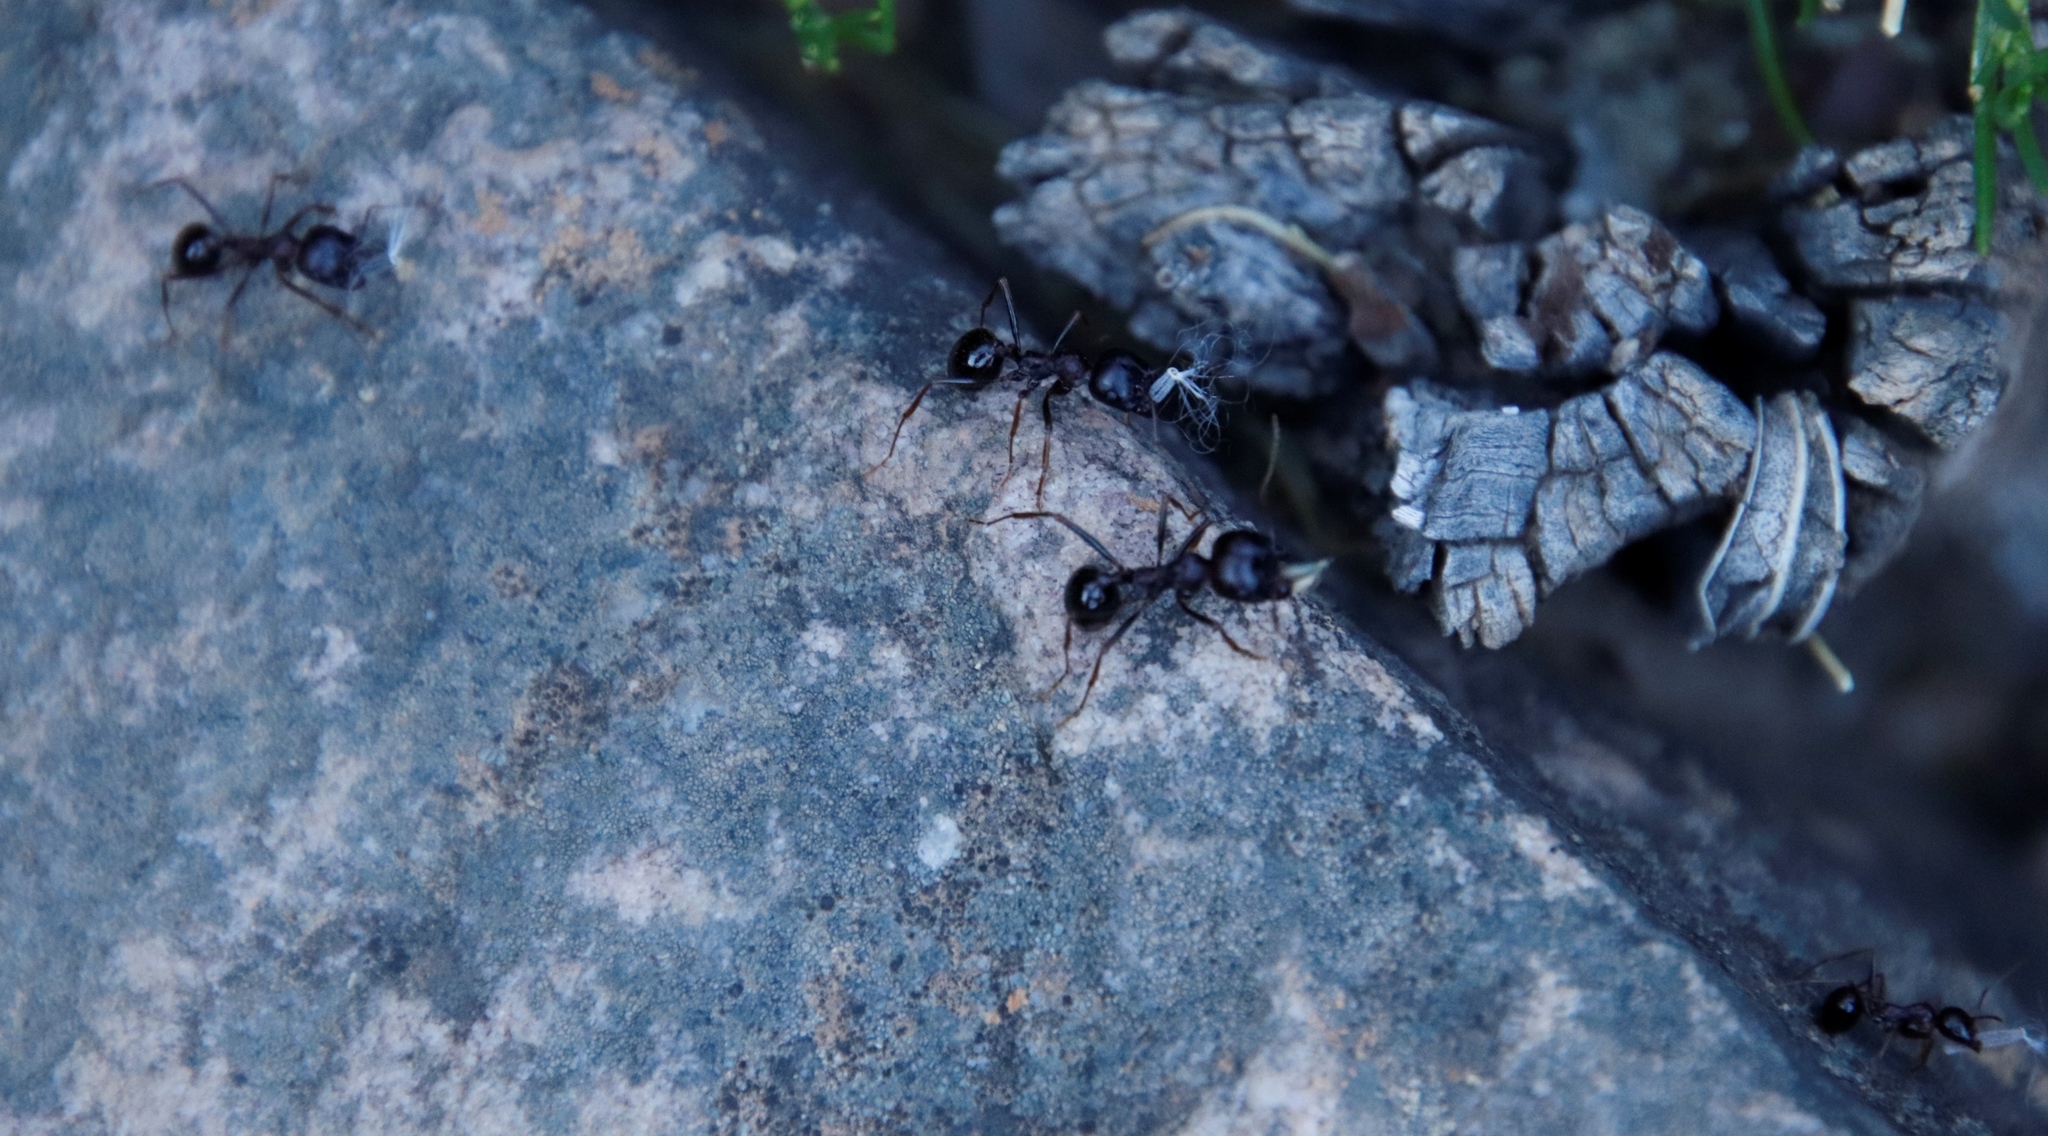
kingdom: Animalia
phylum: Arthropoda
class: Insecta
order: Hymenoptera
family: Formicidae
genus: Messor
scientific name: Messor capensis
